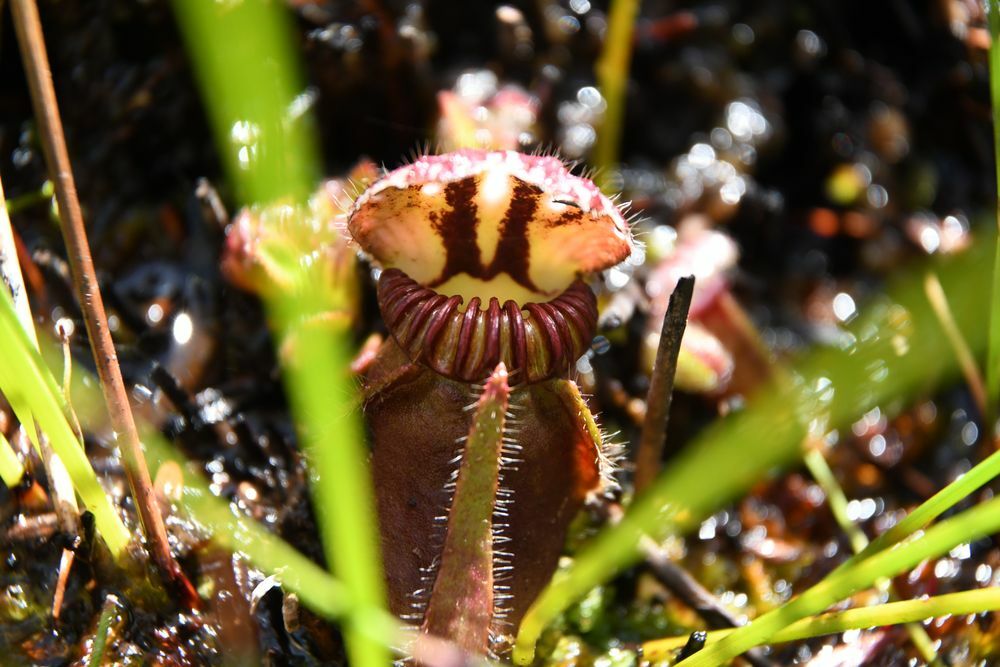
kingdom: Plantae
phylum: Tracheophyta
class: Magnoliopsida
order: Oxalidales
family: Cephalotaceae
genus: Cephalotus
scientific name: Cephalotus follicularis
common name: Australian pitcher plant
